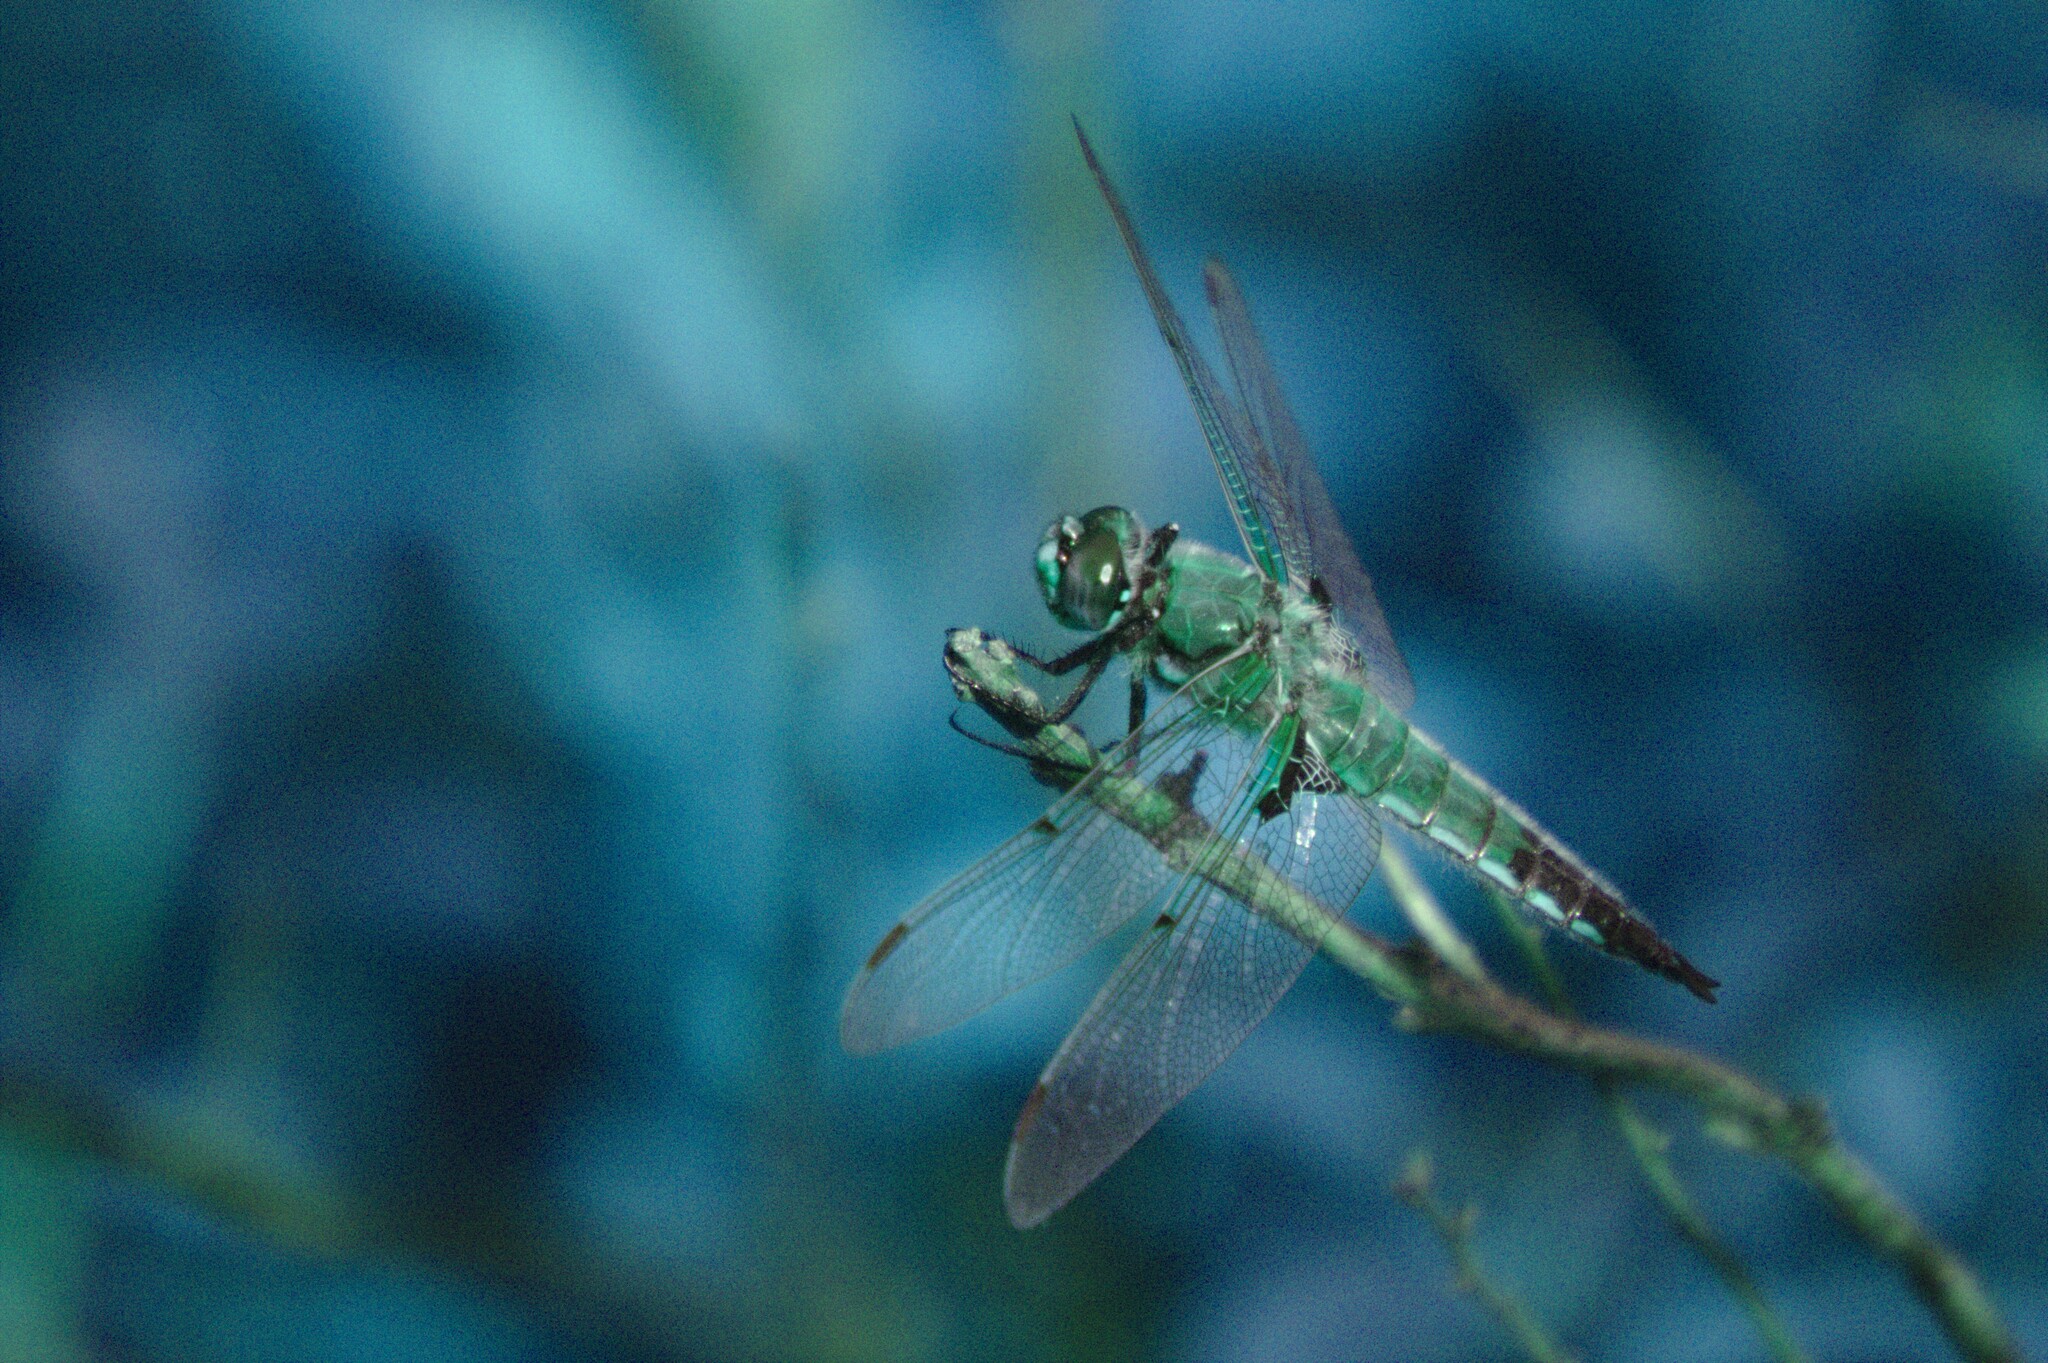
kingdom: Animalia
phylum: Arthropoda
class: Insecta
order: Odonata
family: Libellulidae
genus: Libellula
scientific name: Libellula quadrimaculata
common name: Four-spotted chaser
